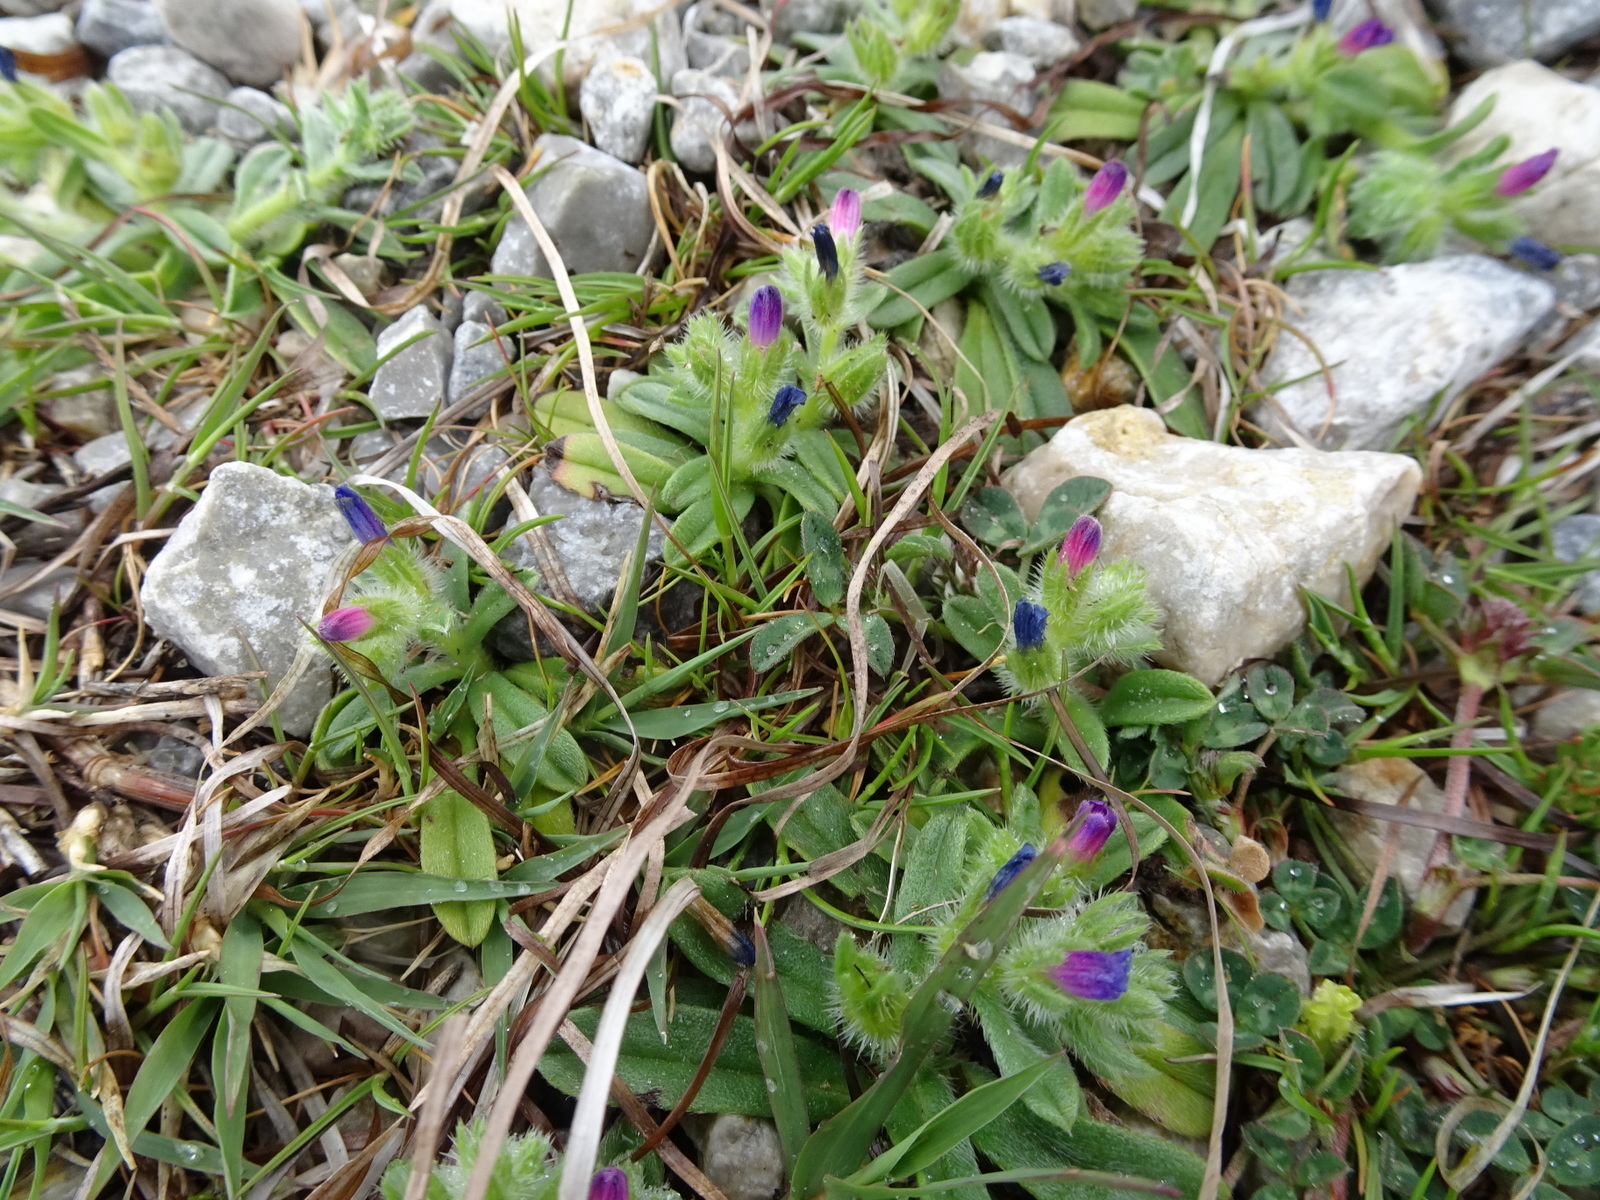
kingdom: Plantae
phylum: Tracheophyta
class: Magnoliopsida
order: Boraginales
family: Boraginaceae
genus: Echium
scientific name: Echium arenarium
